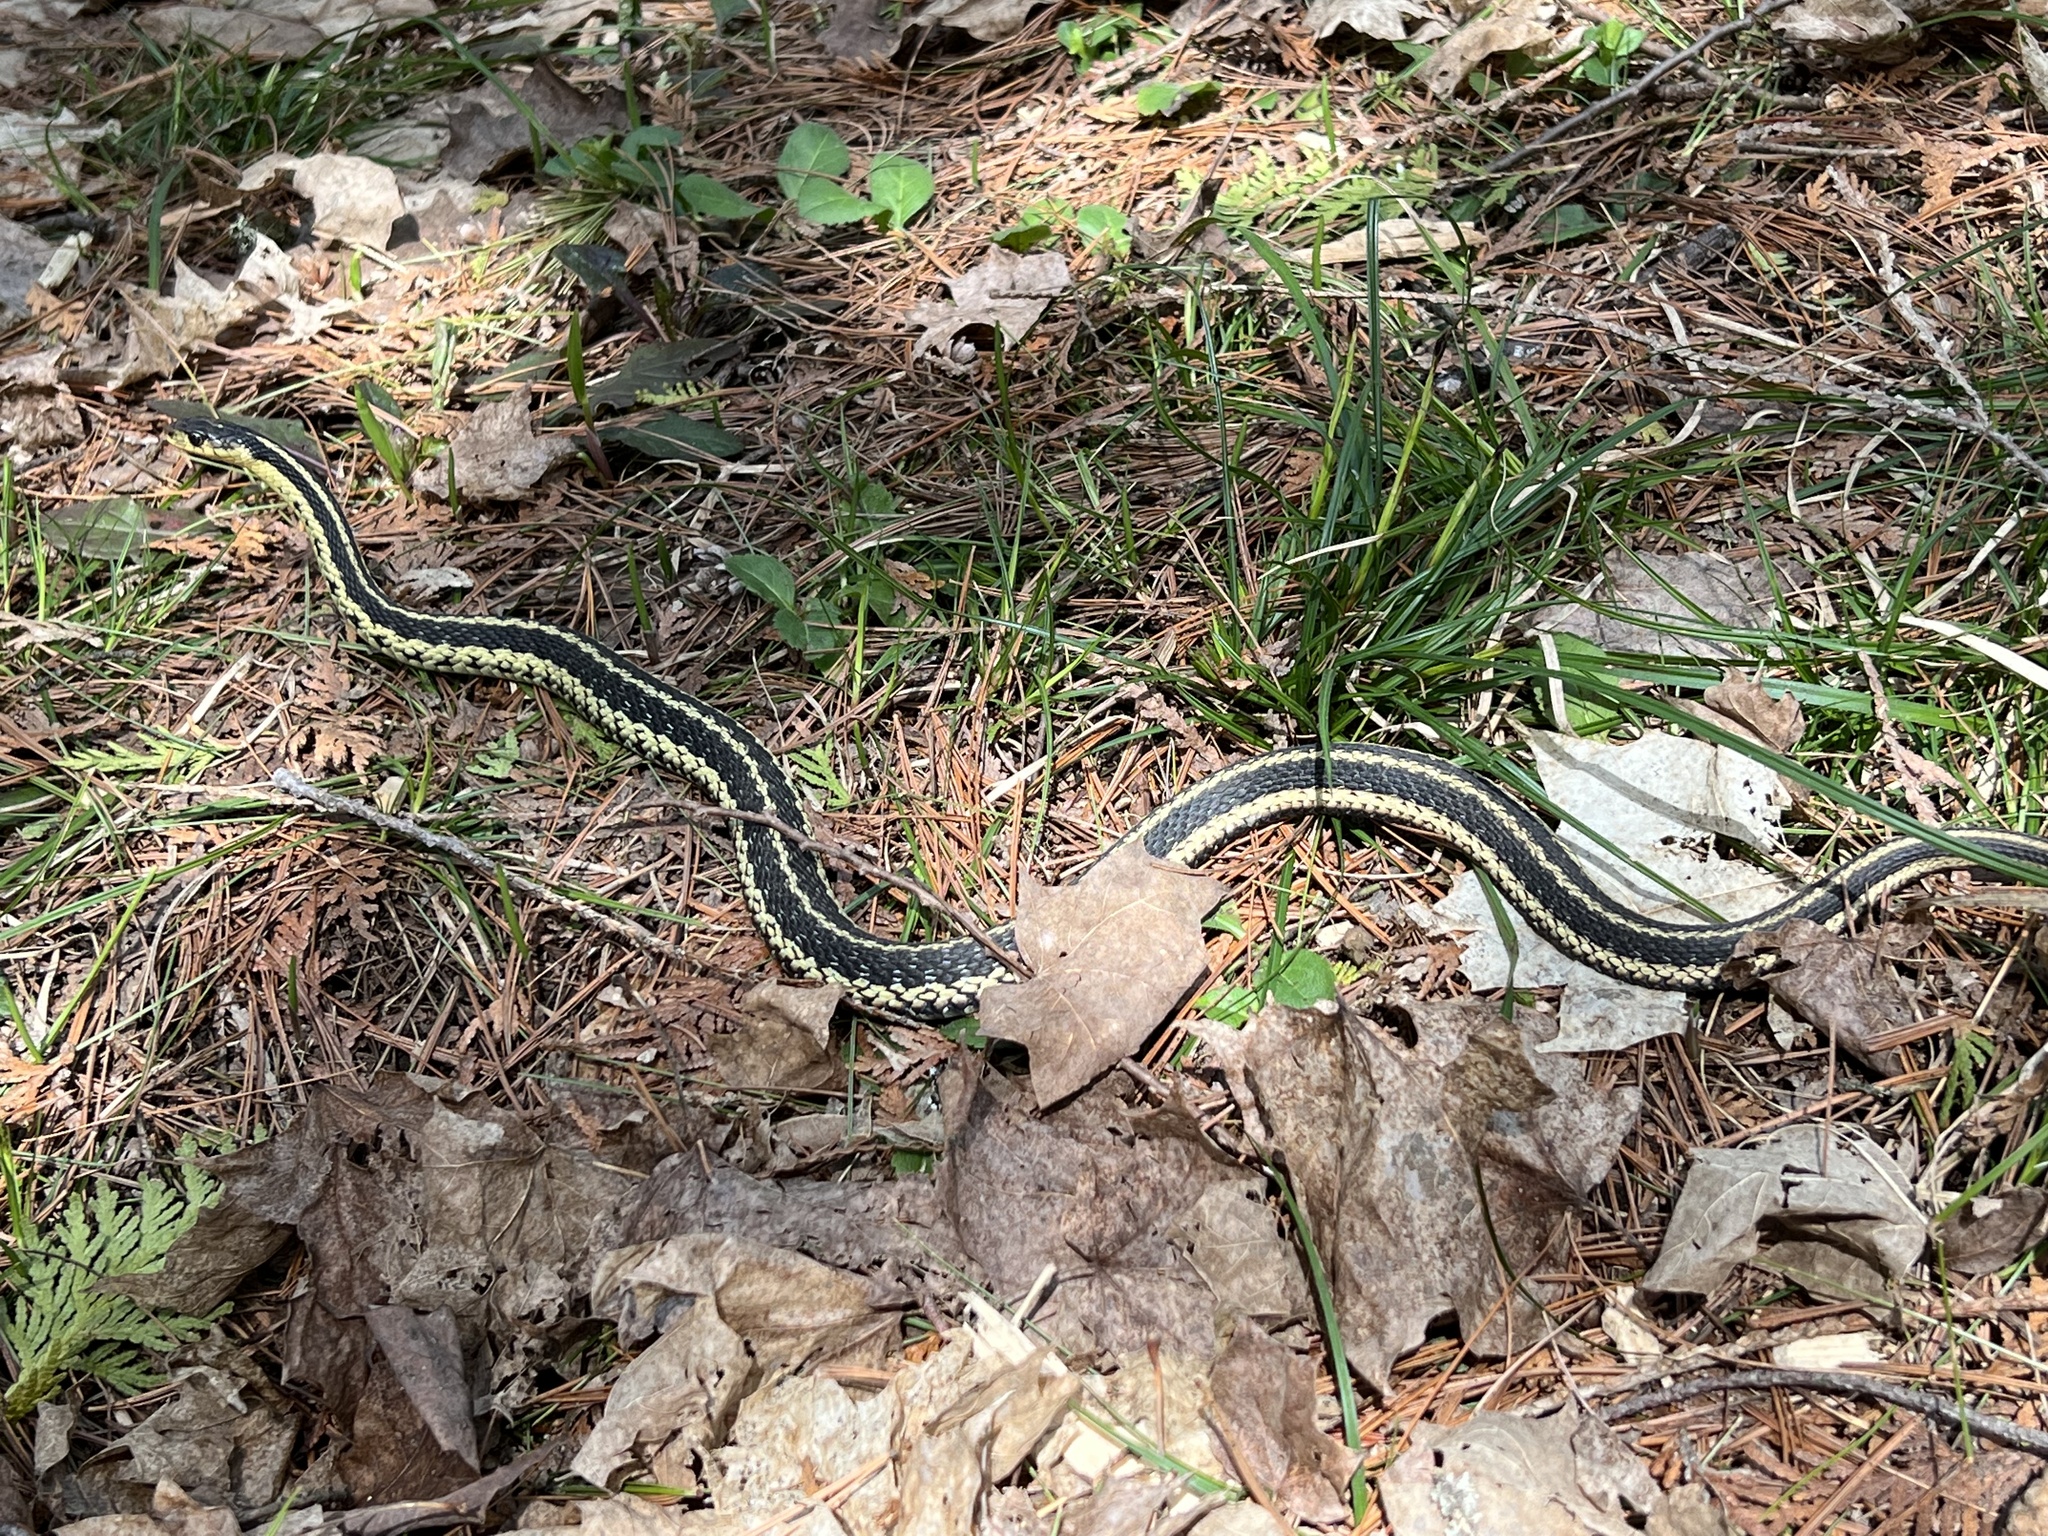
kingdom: Animalia
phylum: Chordata
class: Squamata
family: Colubridae
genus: Thamnophis
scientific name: Thamnophis sirtalis
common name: Common garter snake
